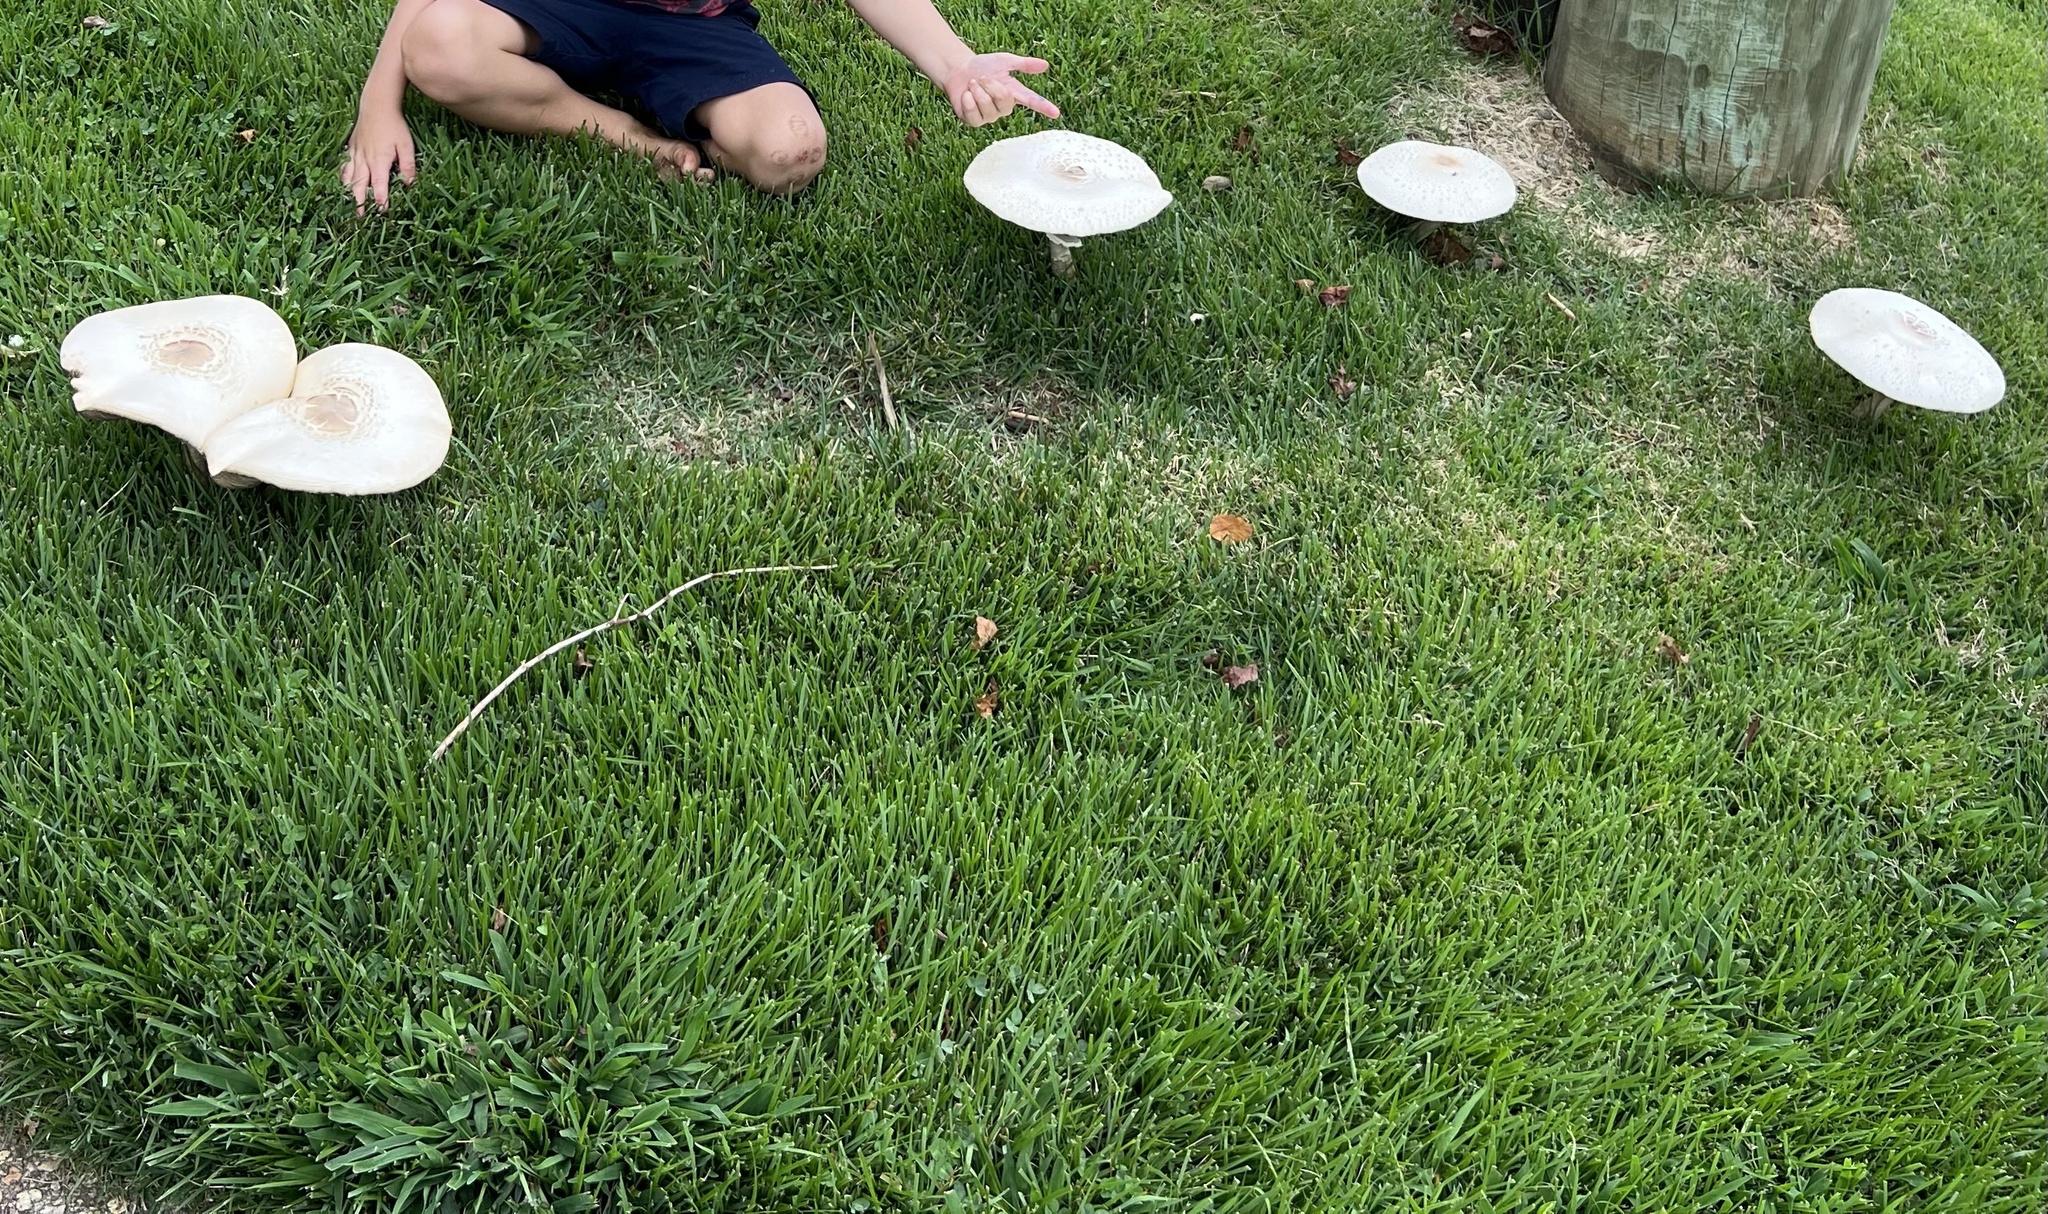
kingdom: Fungi
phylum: Basidiomycota
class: Agaricomycetes
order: Agaricales
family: Agaricaceae
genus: Chlorophyllum
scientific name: Chlorophyllum molybdites
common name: False parasol
